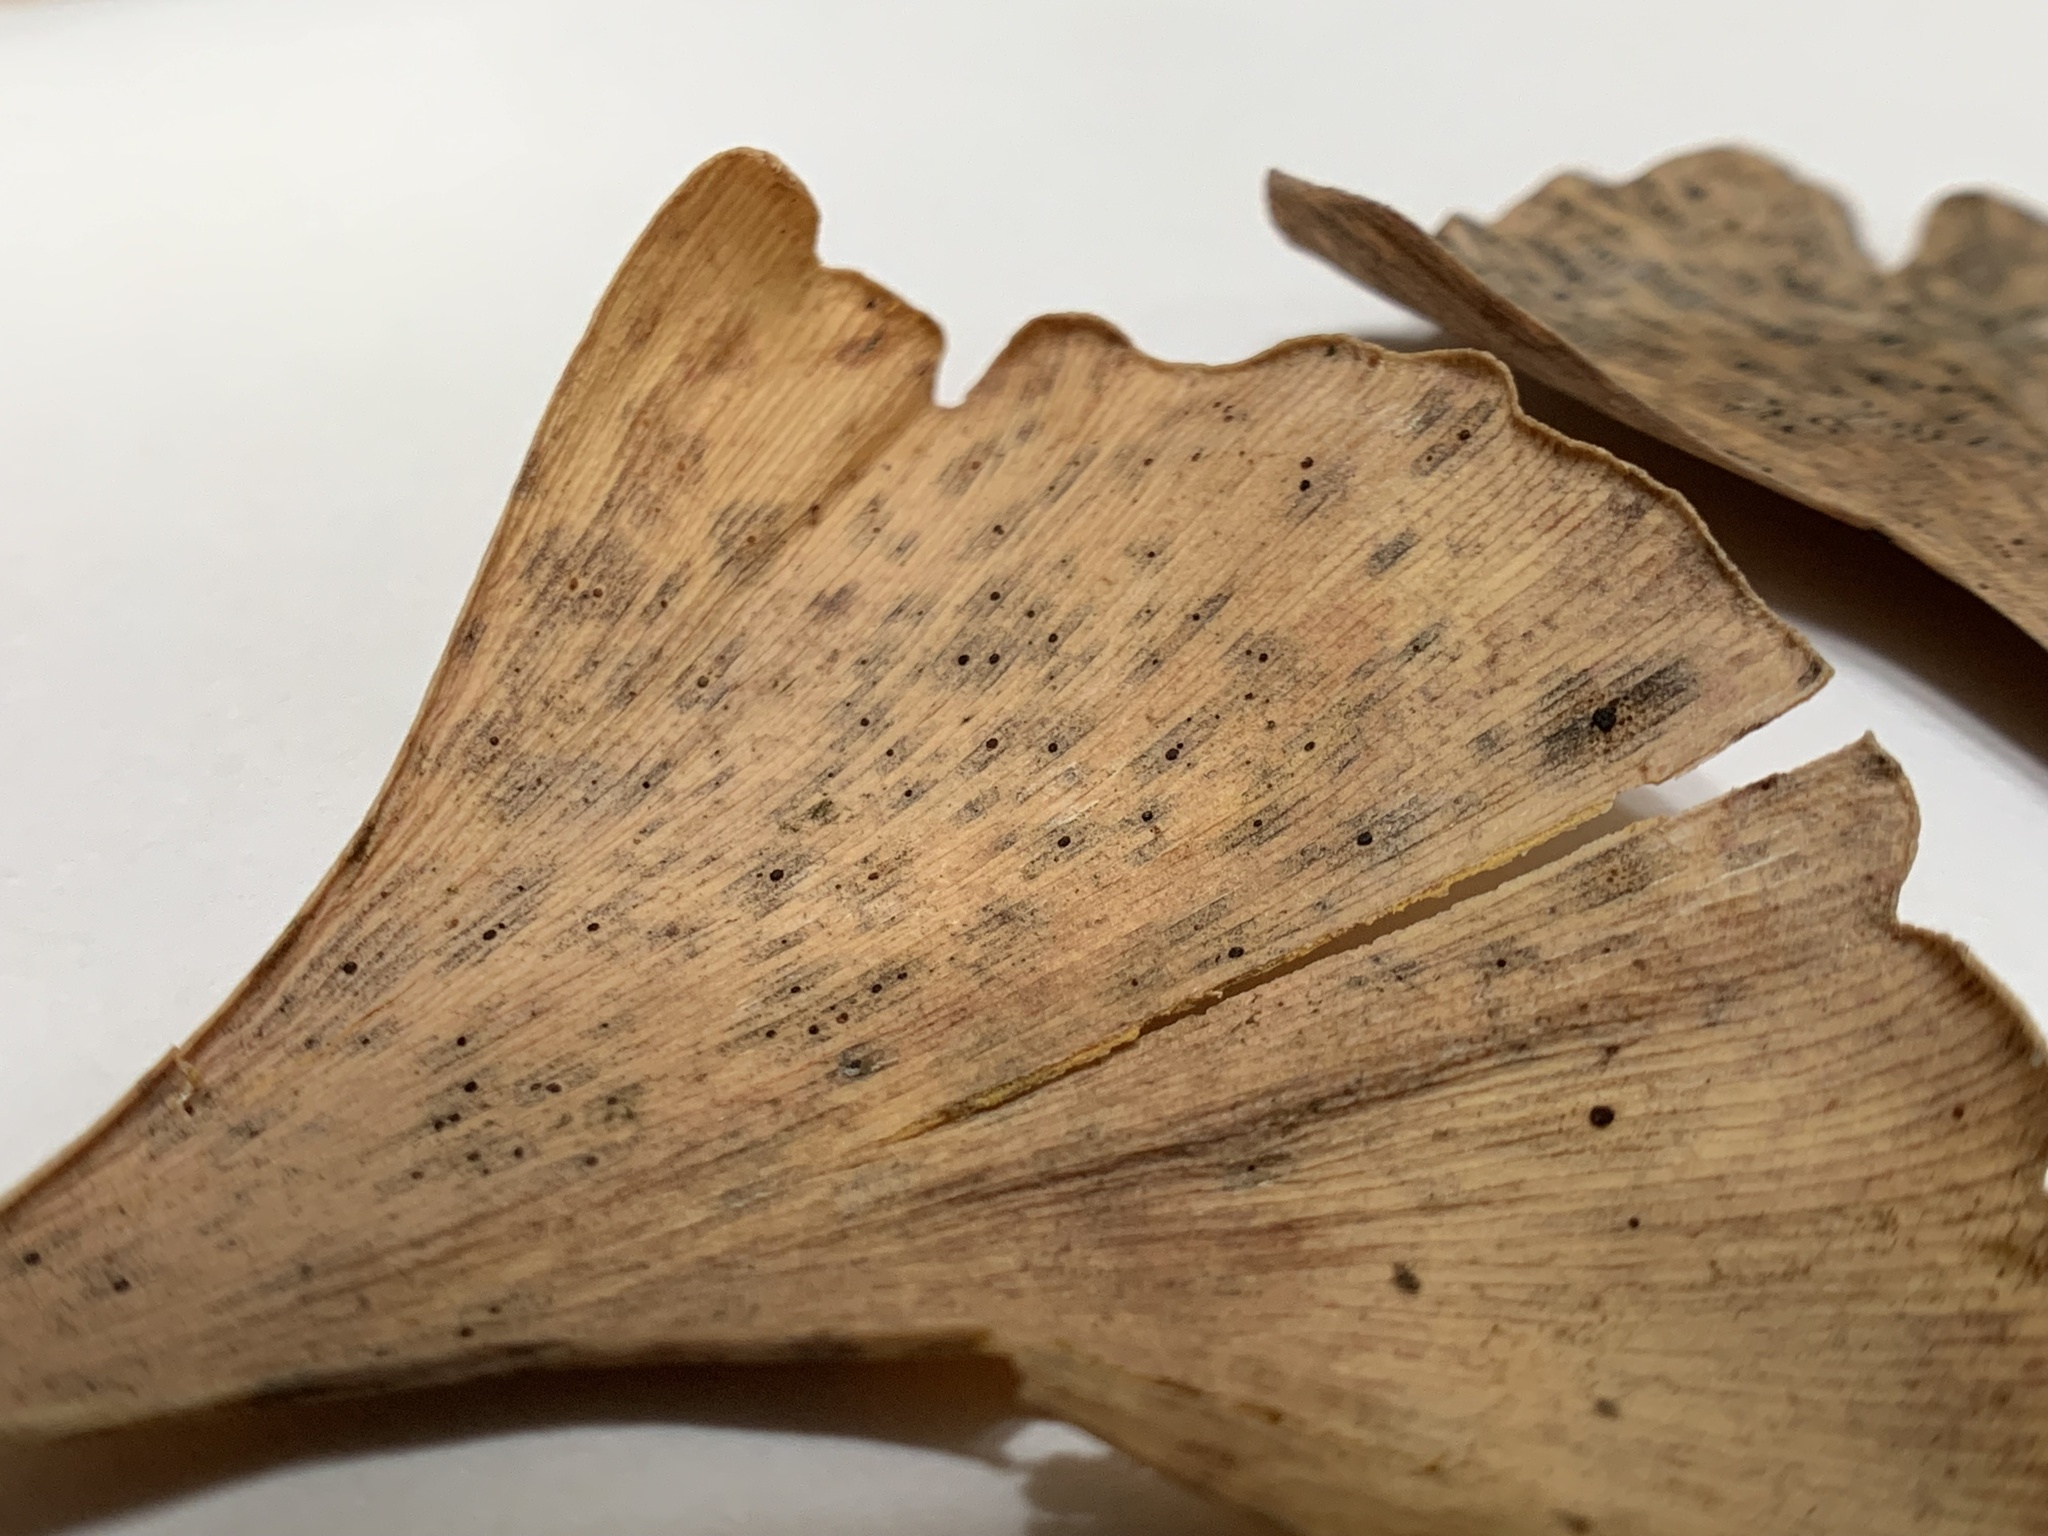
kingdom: Fungi
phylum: Basidiomycota
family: Bartheletiaceae
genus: Bartheletia
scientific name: Bartheletia paradoxa
